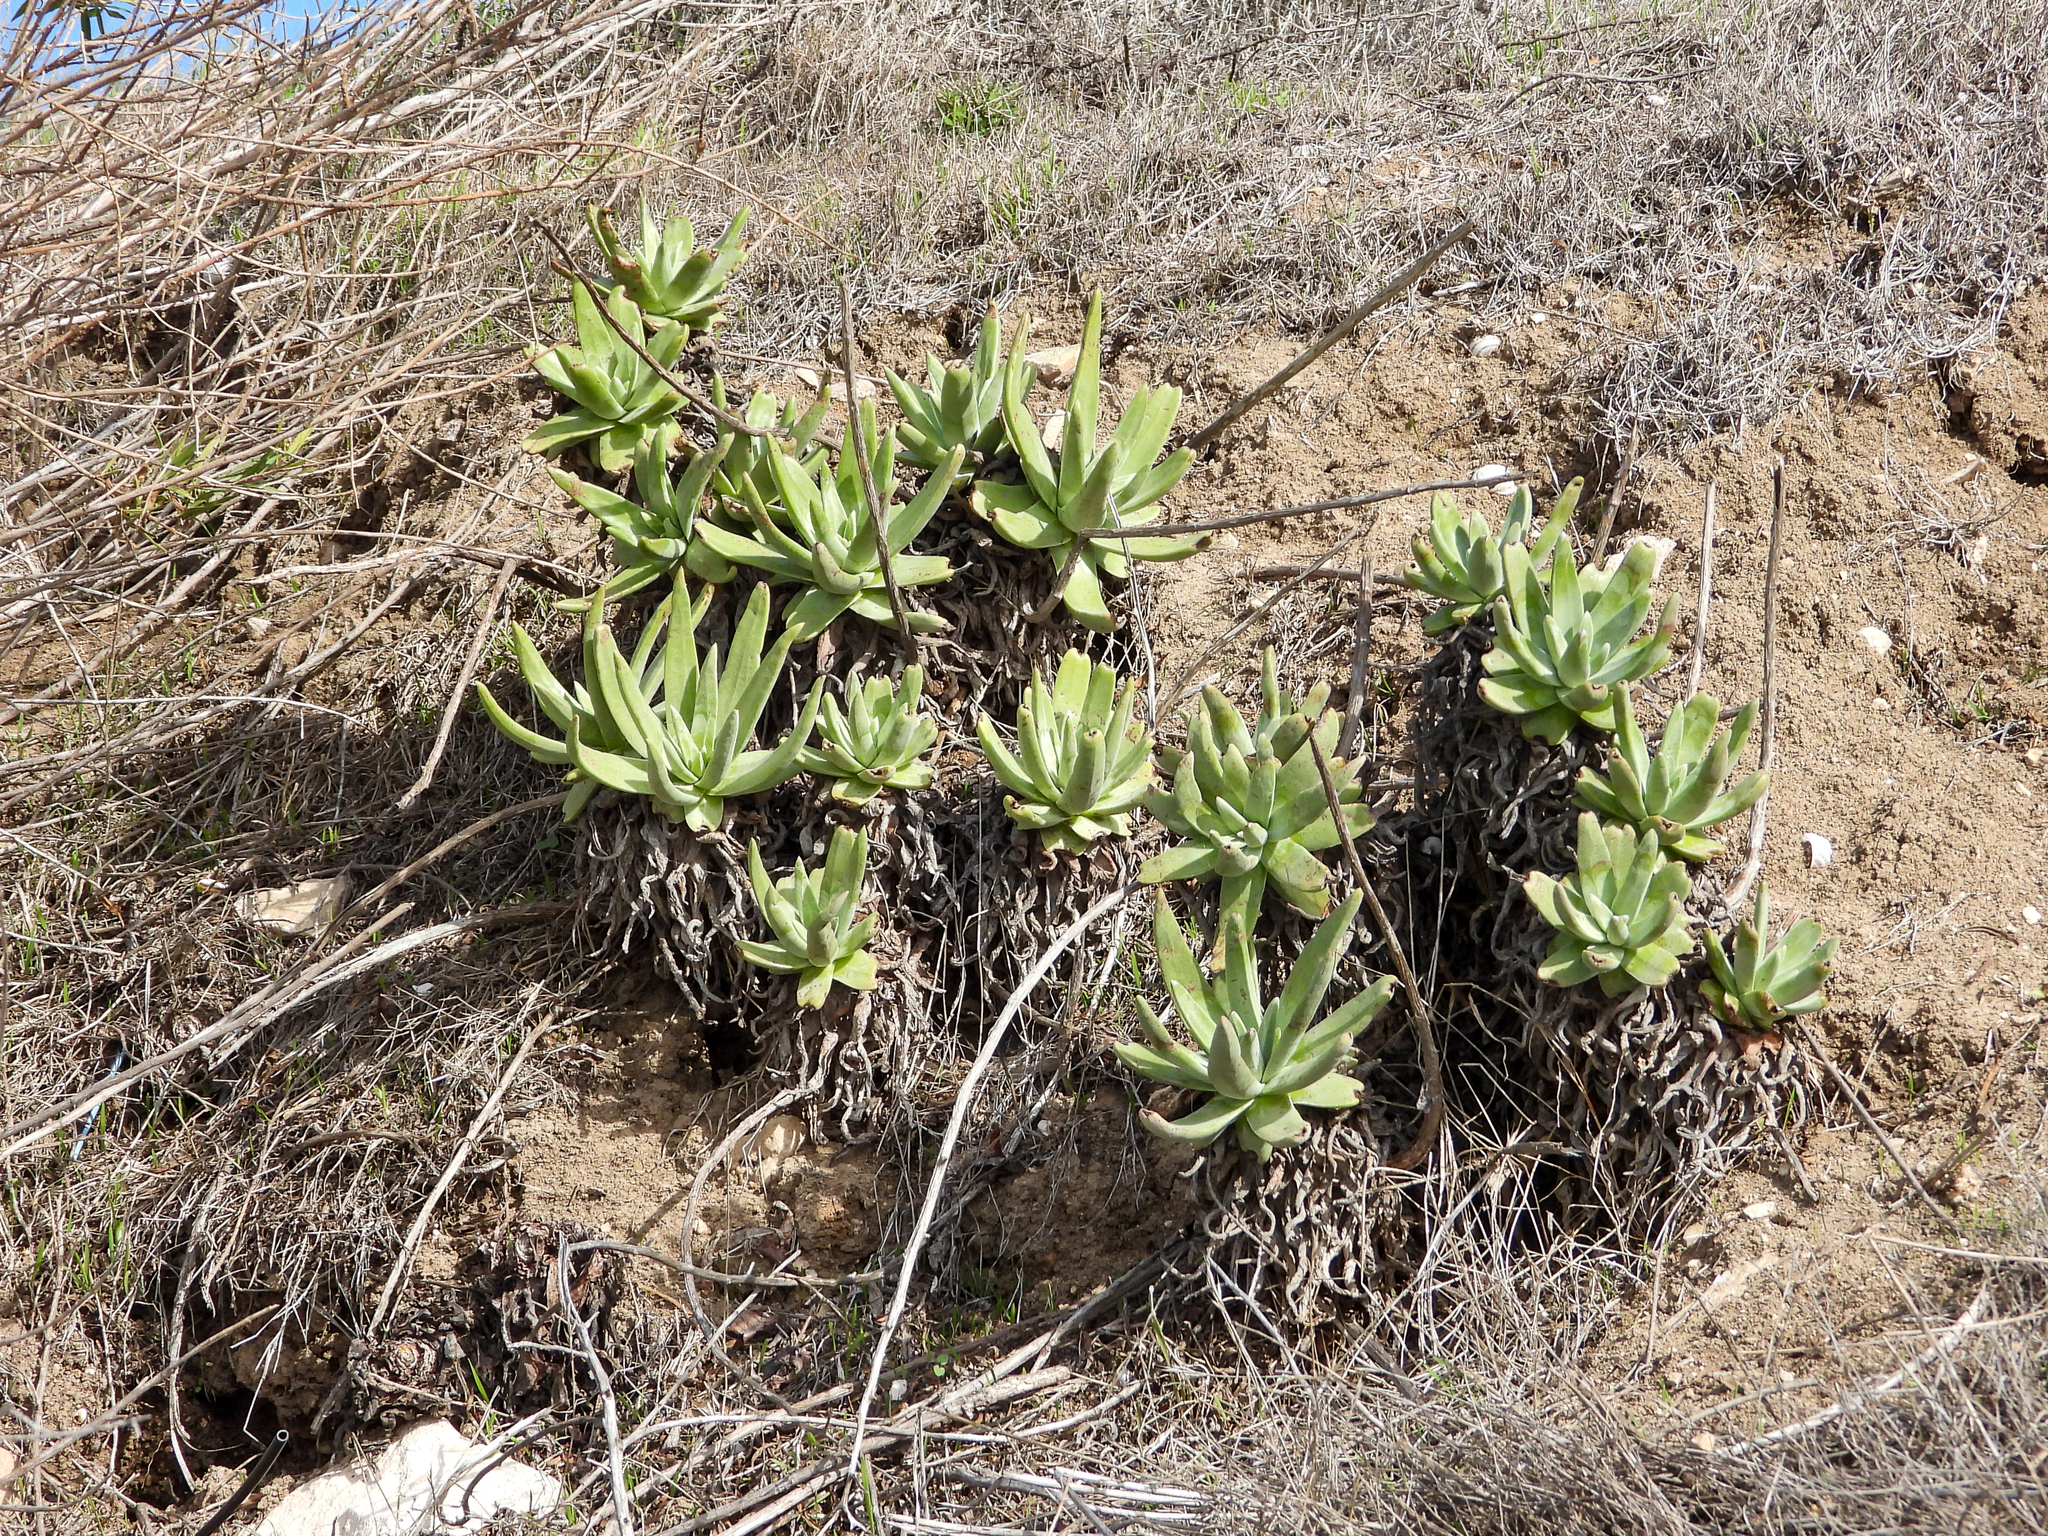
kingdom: Plantae
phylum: Tracheophyta
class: Magnoliopsida
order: Saxifragales
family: Crassulaceae
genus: Dudleya
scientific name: Dudleya virens
